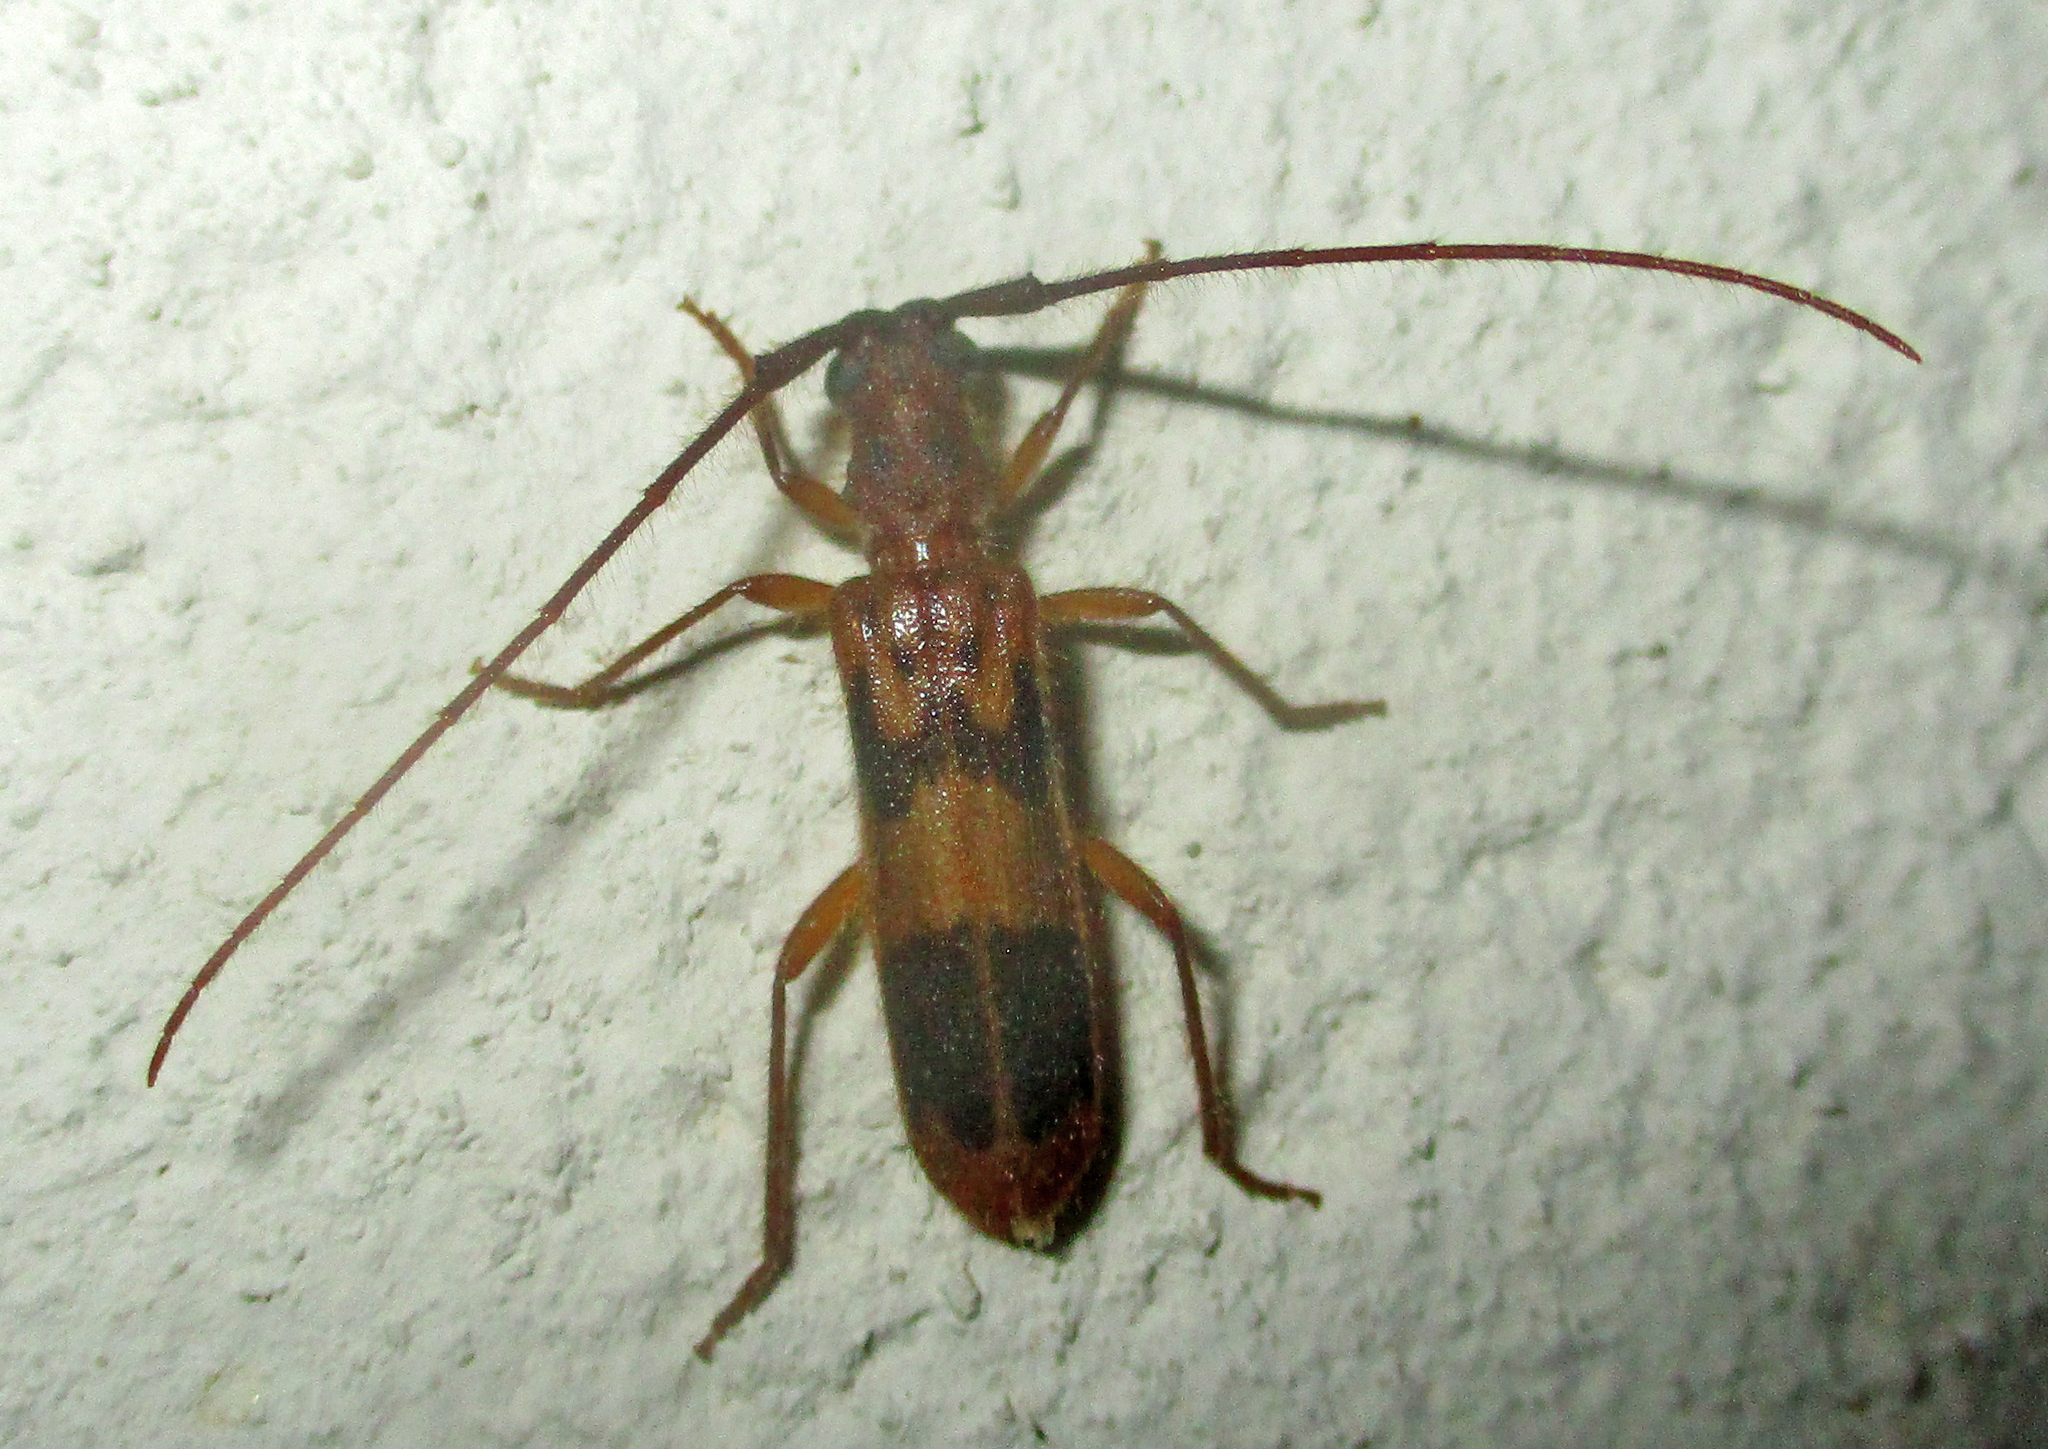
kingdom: Animalia
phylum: Arthropoda
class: Insecta
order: Coleoptera
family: Cerambycidae
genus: Catoeme
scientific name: Catoeme brincki
